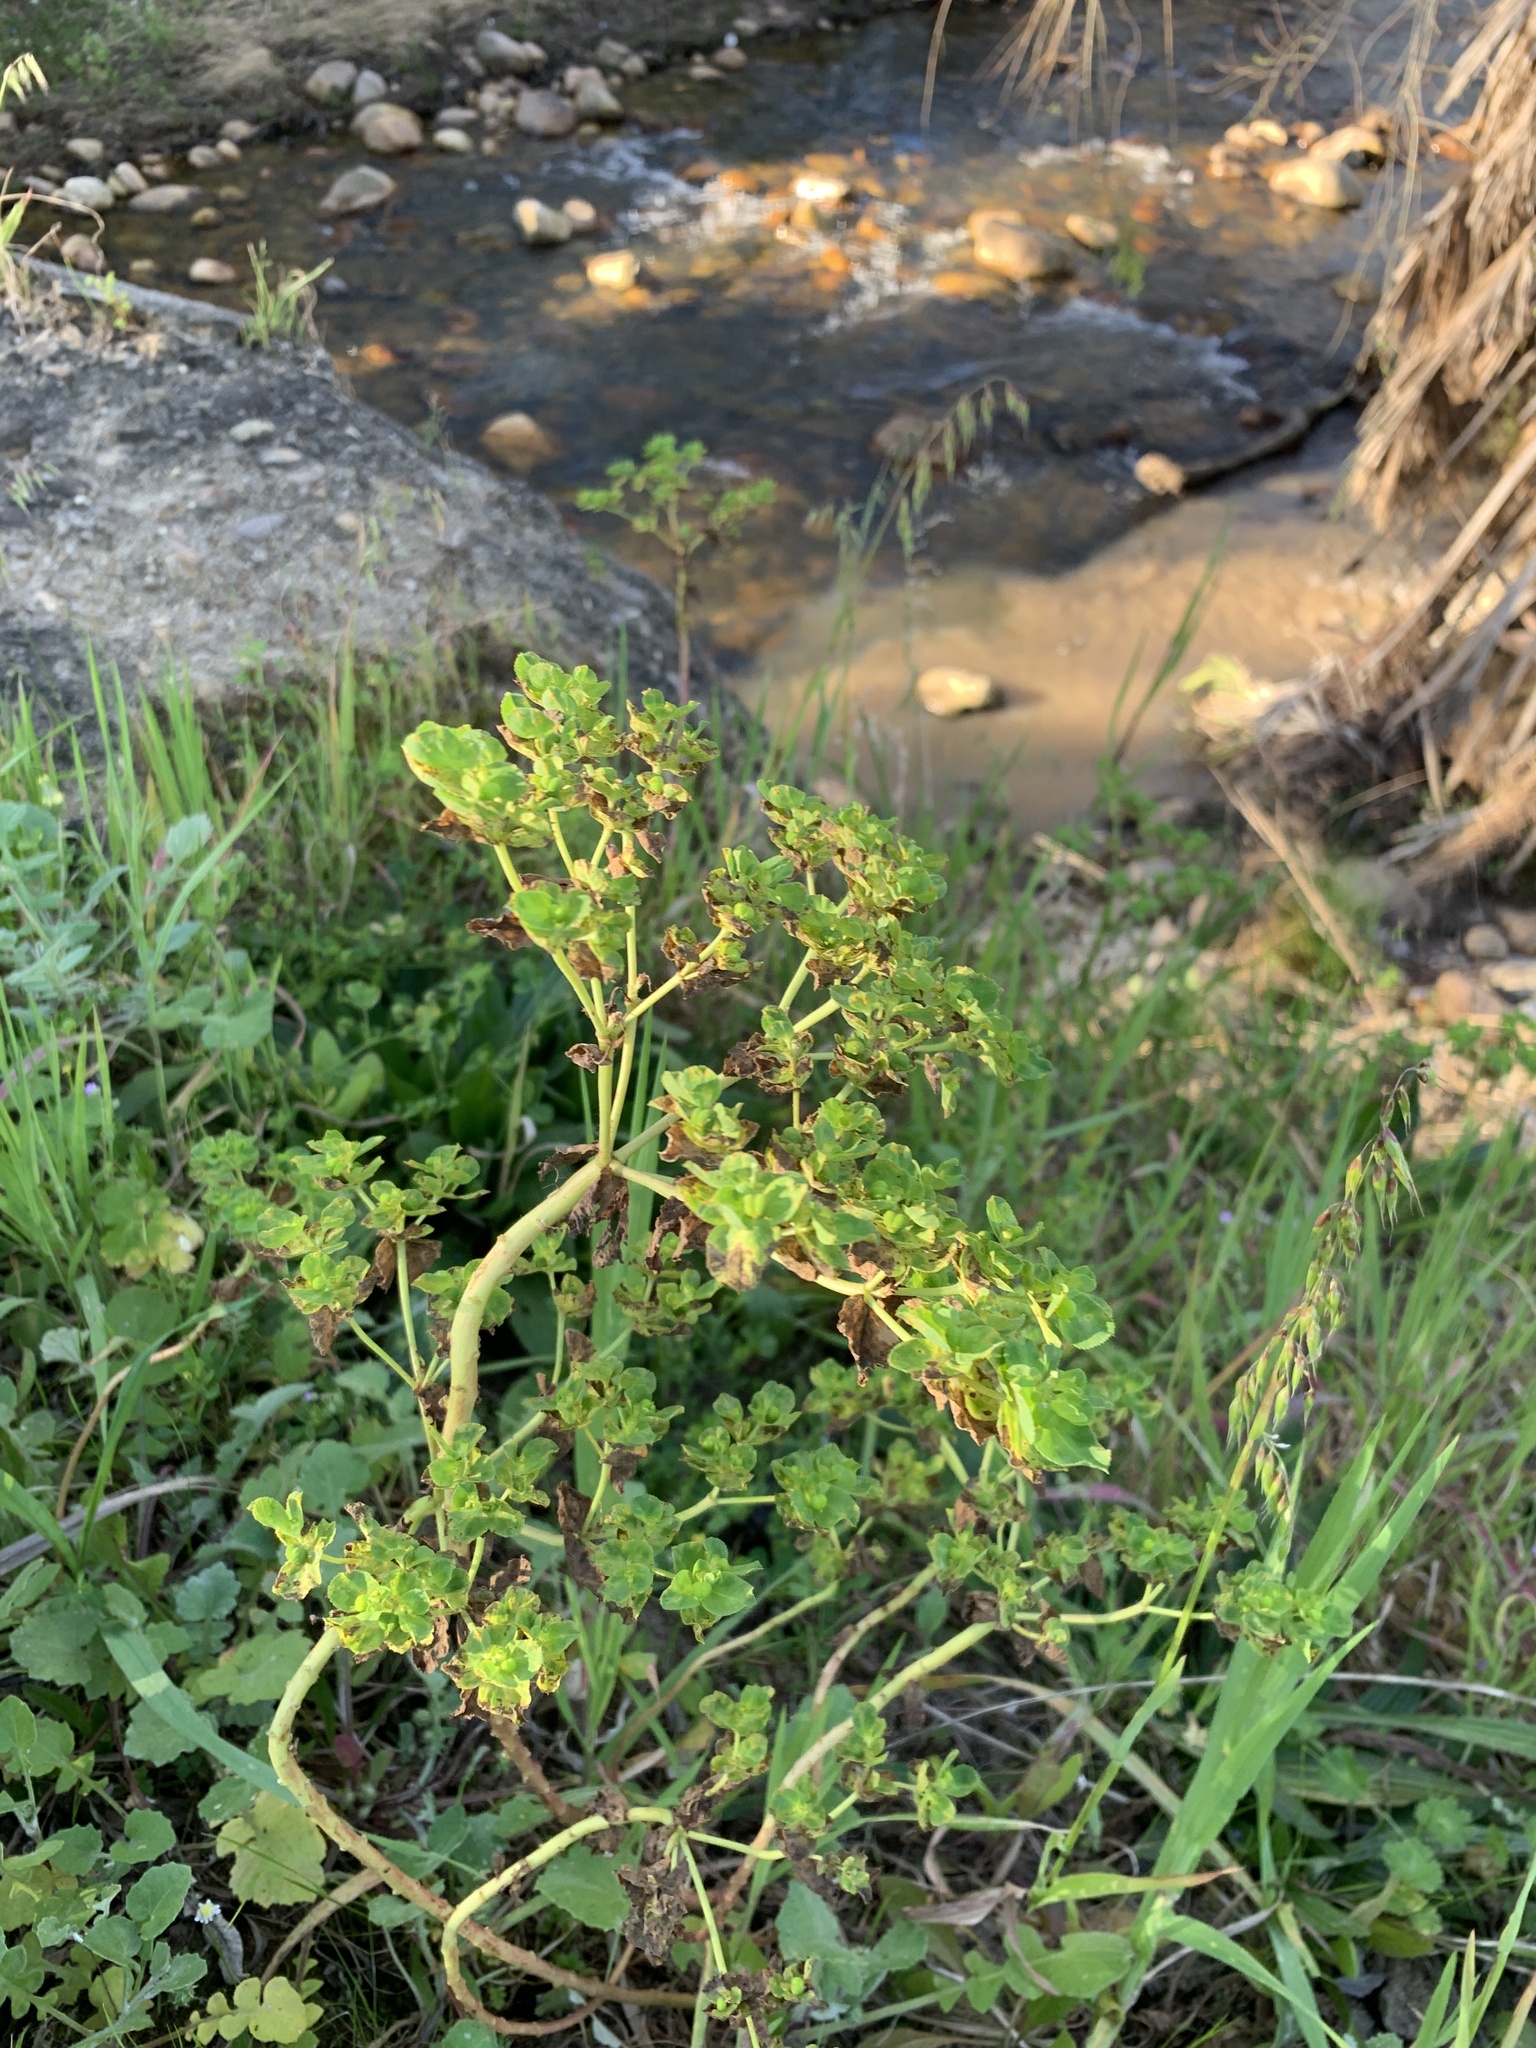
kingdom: Plantae
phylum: Tracheophyta
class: Magnoliopsida
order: Malpighiales
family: Euphorbiaceae
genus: Euphorbia
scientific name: Euphorbia helioscopia
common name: Sun spurge
